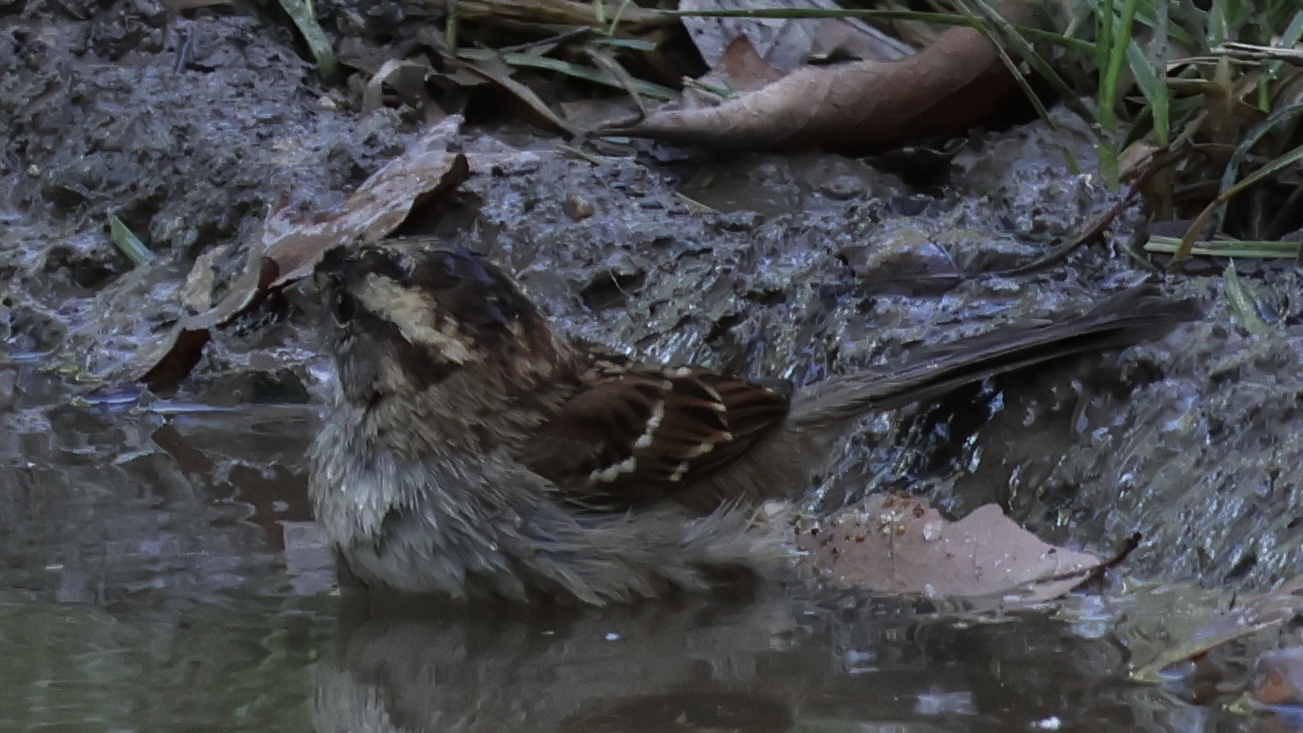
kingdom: Animalia
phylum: Chordata
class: Aves
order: Passeriformes
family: Passerellidae
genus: Zonotrichia
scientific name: Zonotrichia albicollis
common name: White-throated sparrow
